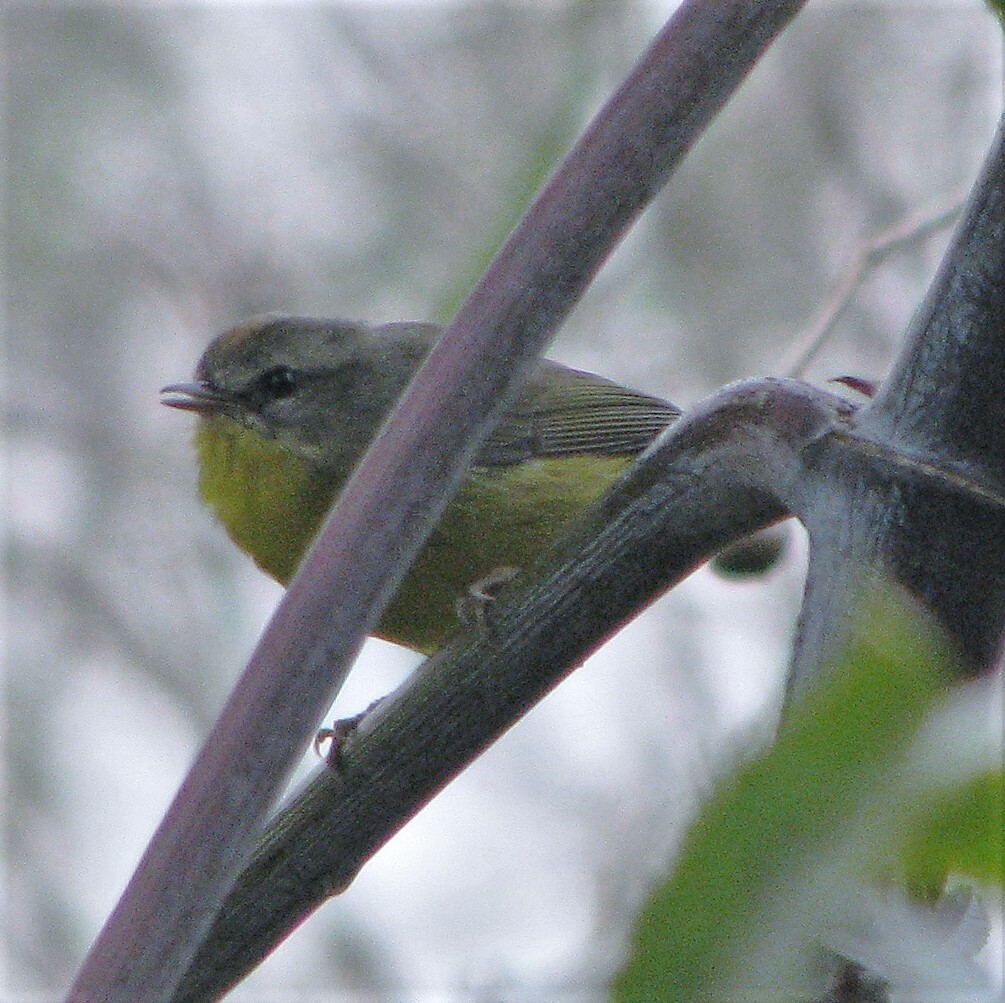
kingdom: Animalia
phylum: Chordata
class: Aves
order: Passeriformes
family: Parulidae
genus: Basileuterus
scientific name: Basileuterus culicivorus
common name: Golden-crowned warbler
